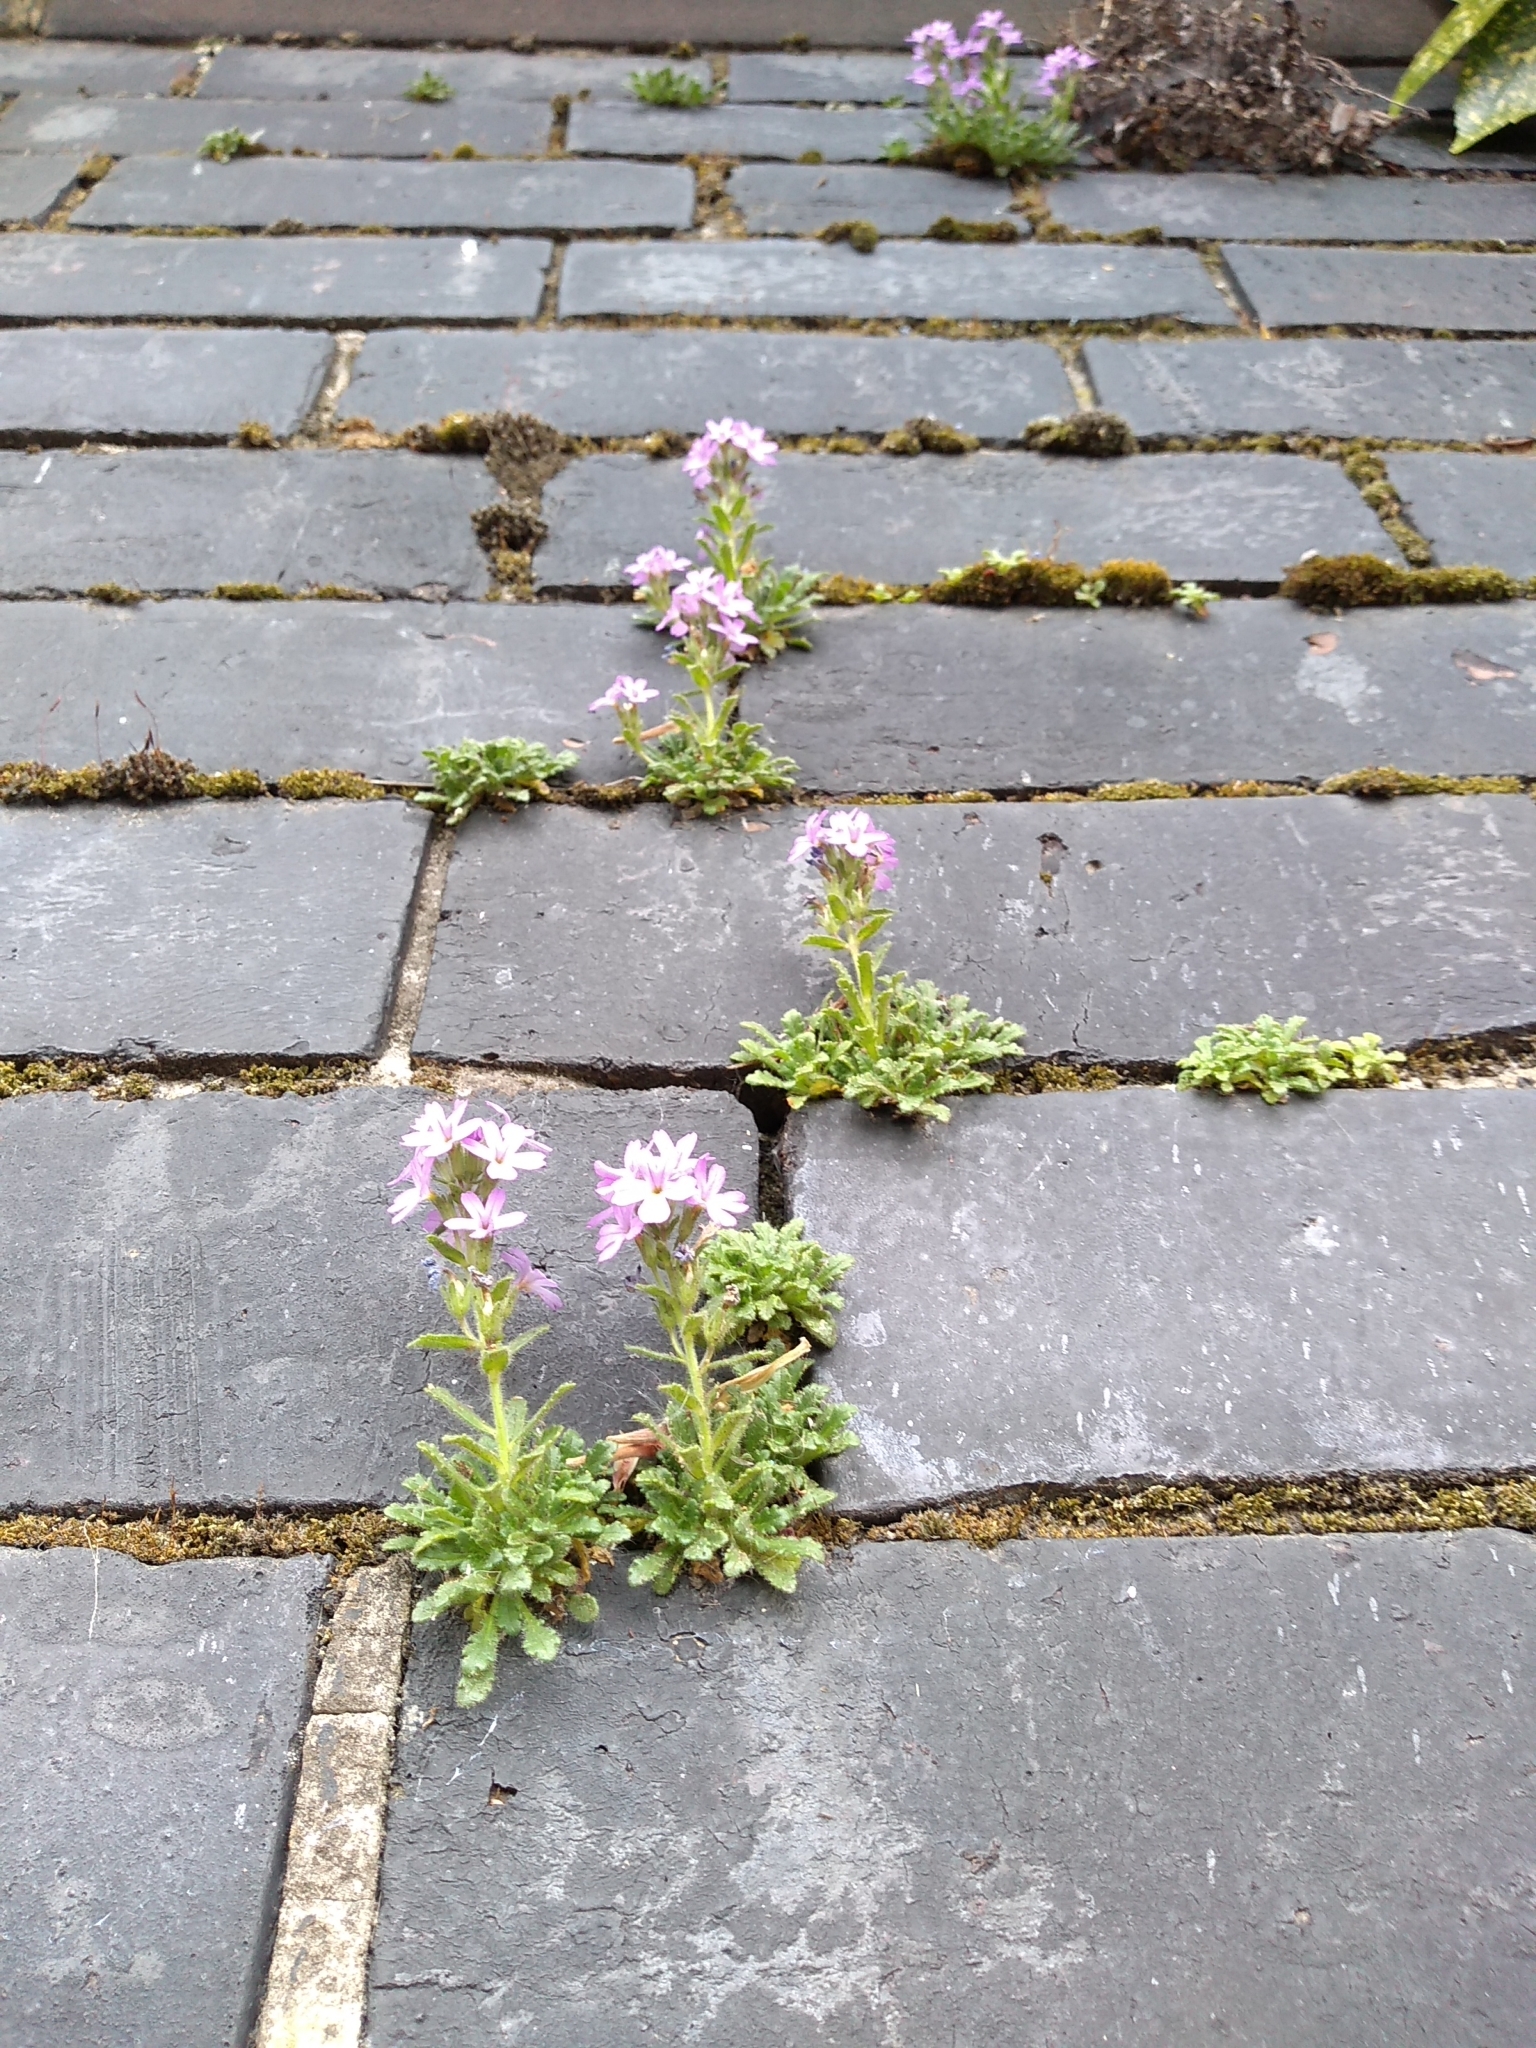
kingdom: Plantae
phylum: Tracheophyta
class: Magnoliopsida
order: Lamiales
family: Plantaginaceae
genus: Erinus
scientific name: Erinus alpinus
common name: Fairy foxglove
